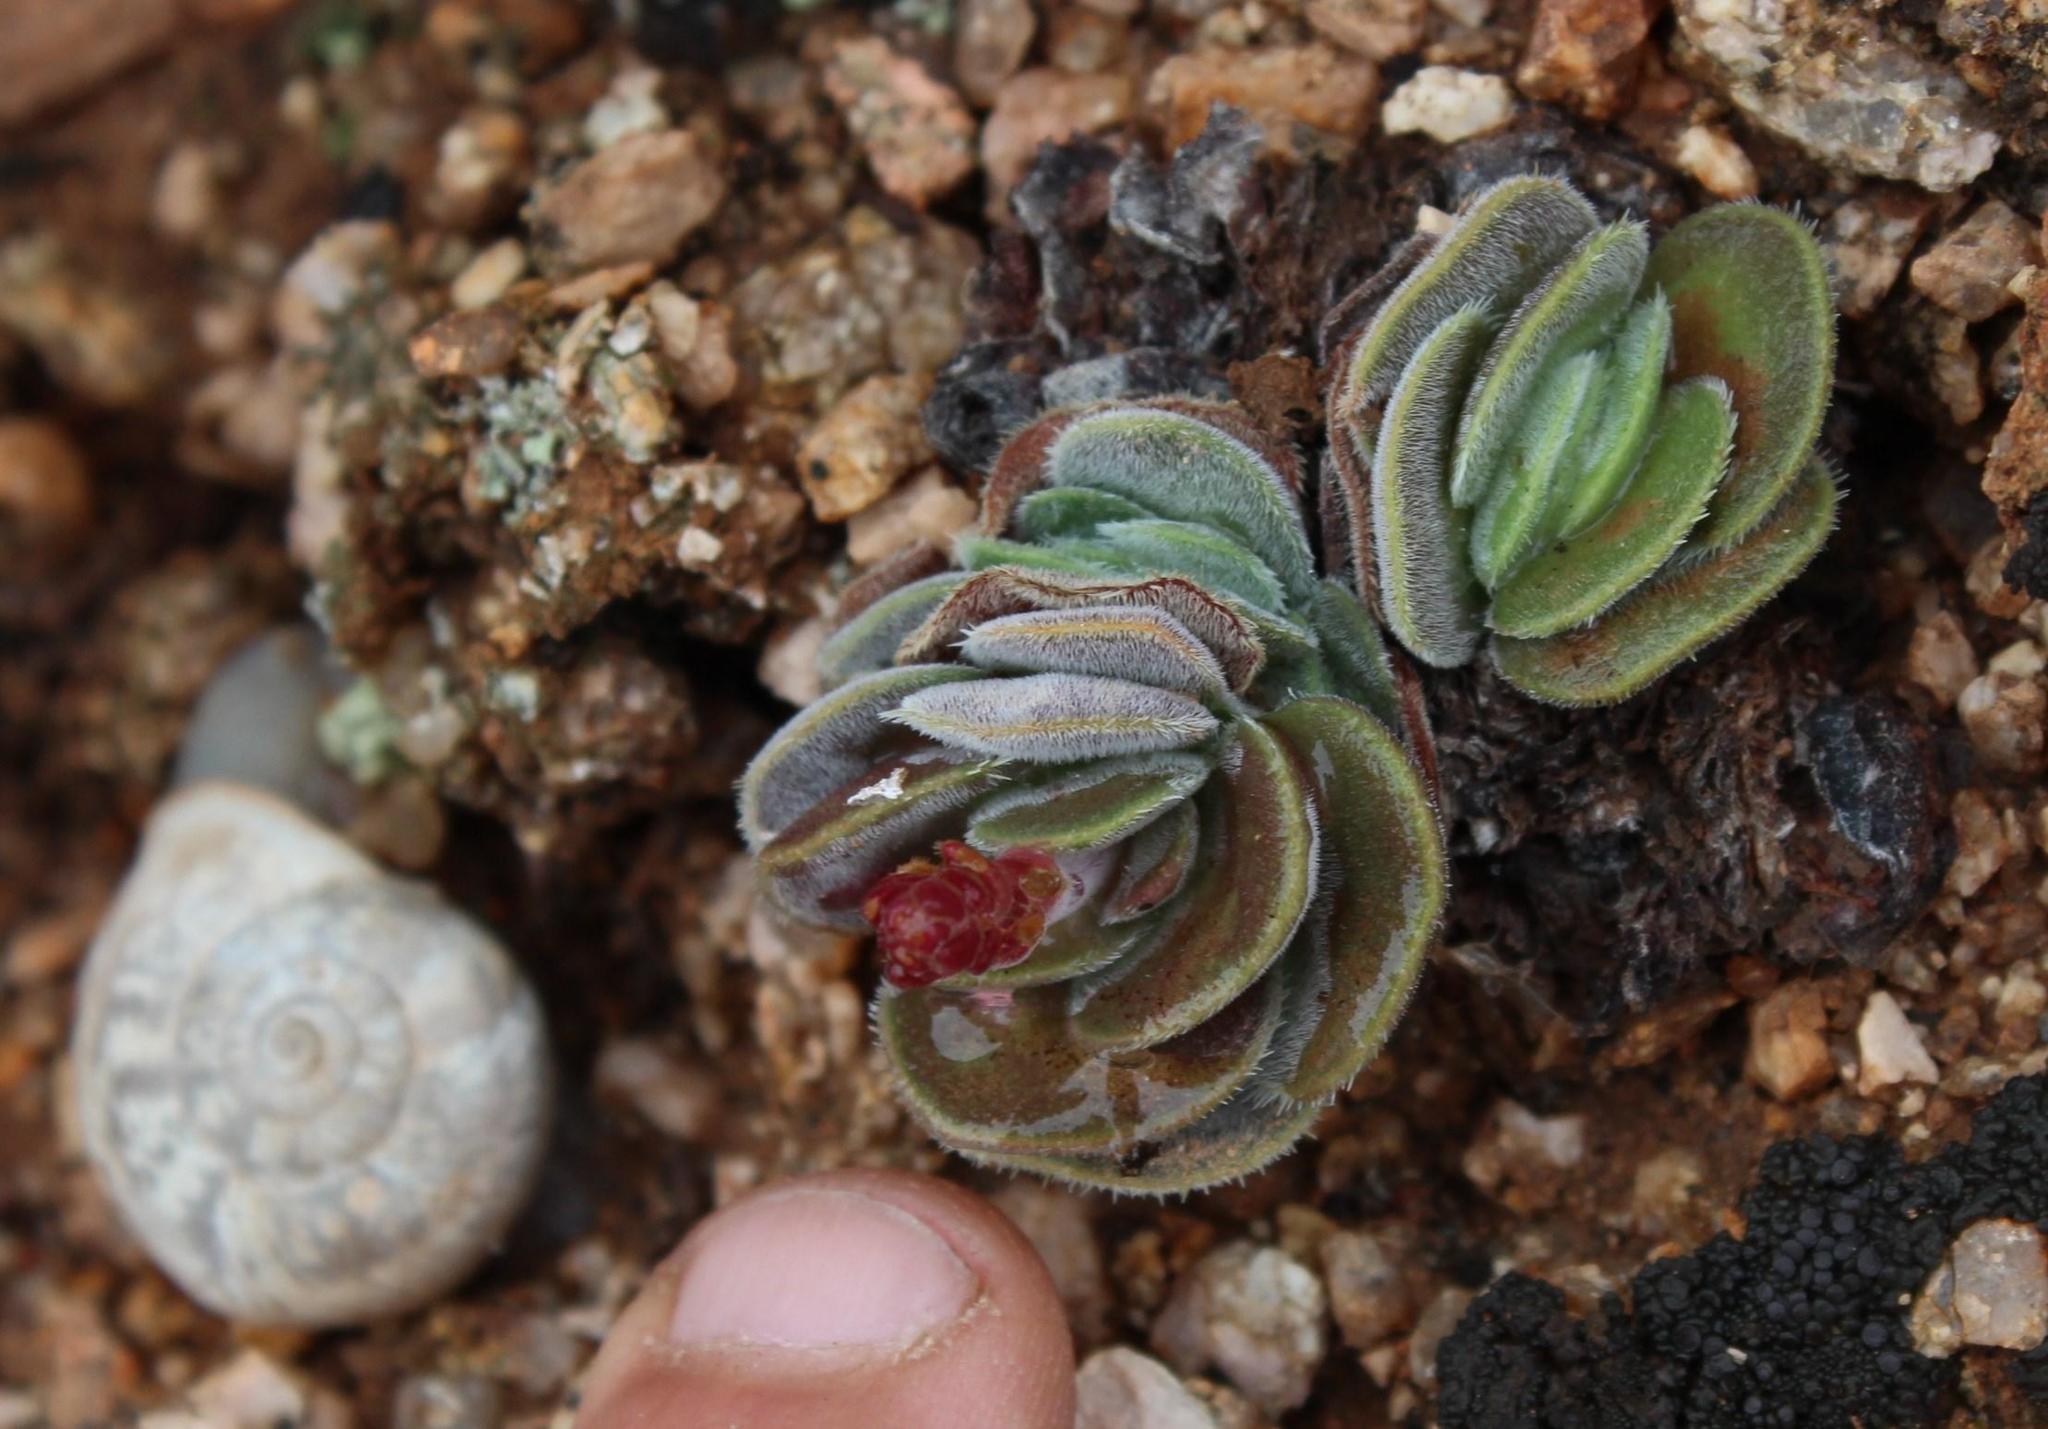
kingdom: Plantae
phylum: Tracheophyta
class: Magnoliopsida
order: Saxifragales
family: Crassulaceae
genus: Crassula
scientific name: Crassula tomentosa
